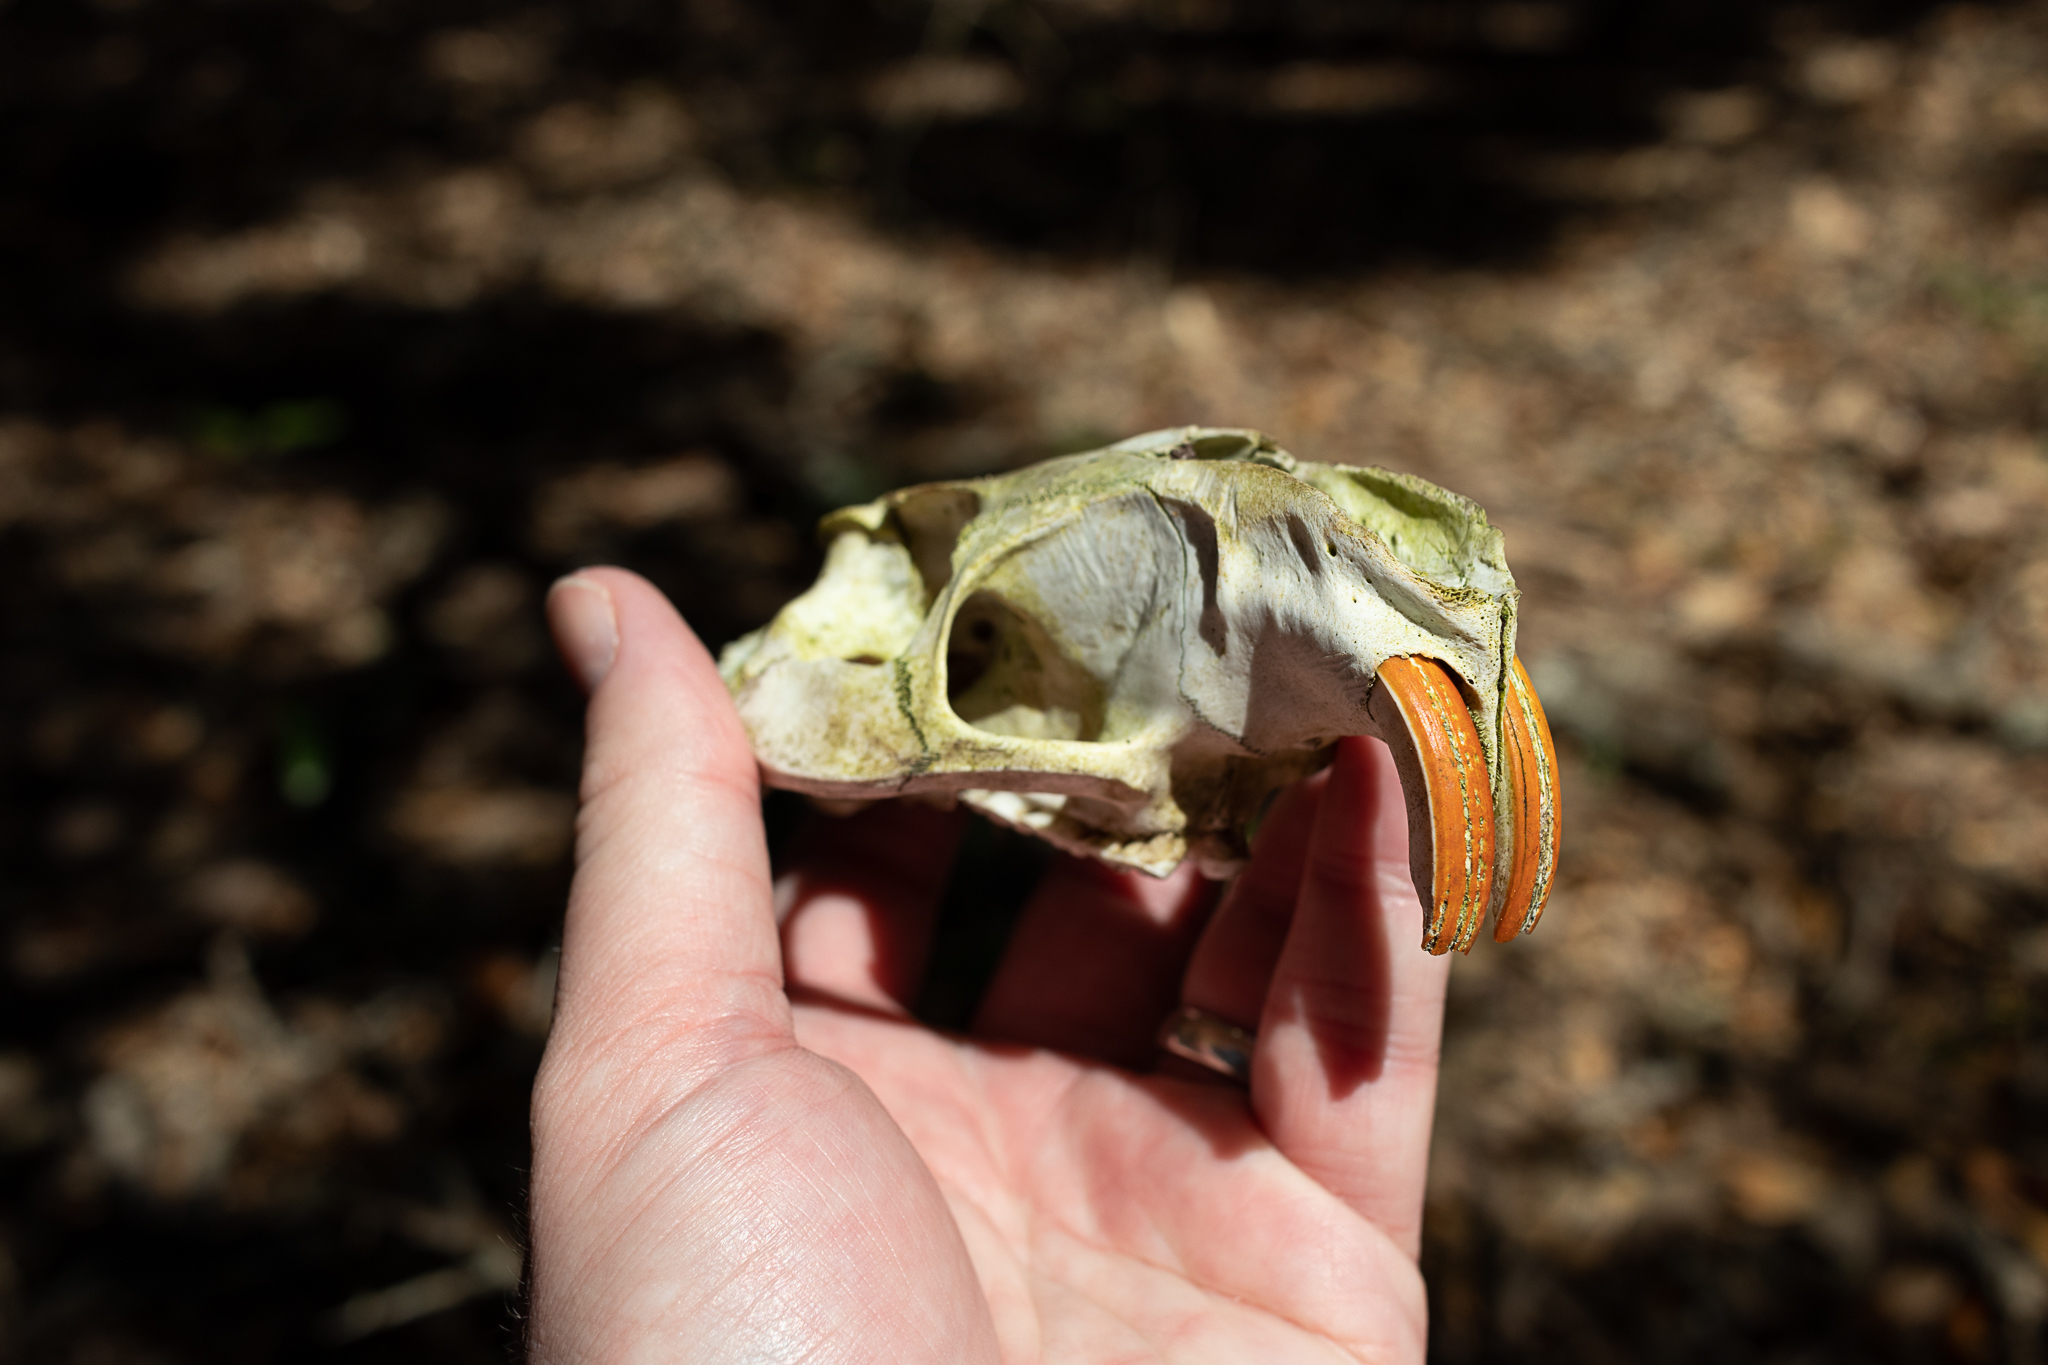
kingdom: Animalia
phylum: Chordata
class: Mammalia
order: Rodentia
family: Myocastoridae
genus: Myocastor
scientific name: Myocastor coypus
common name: Coypu
